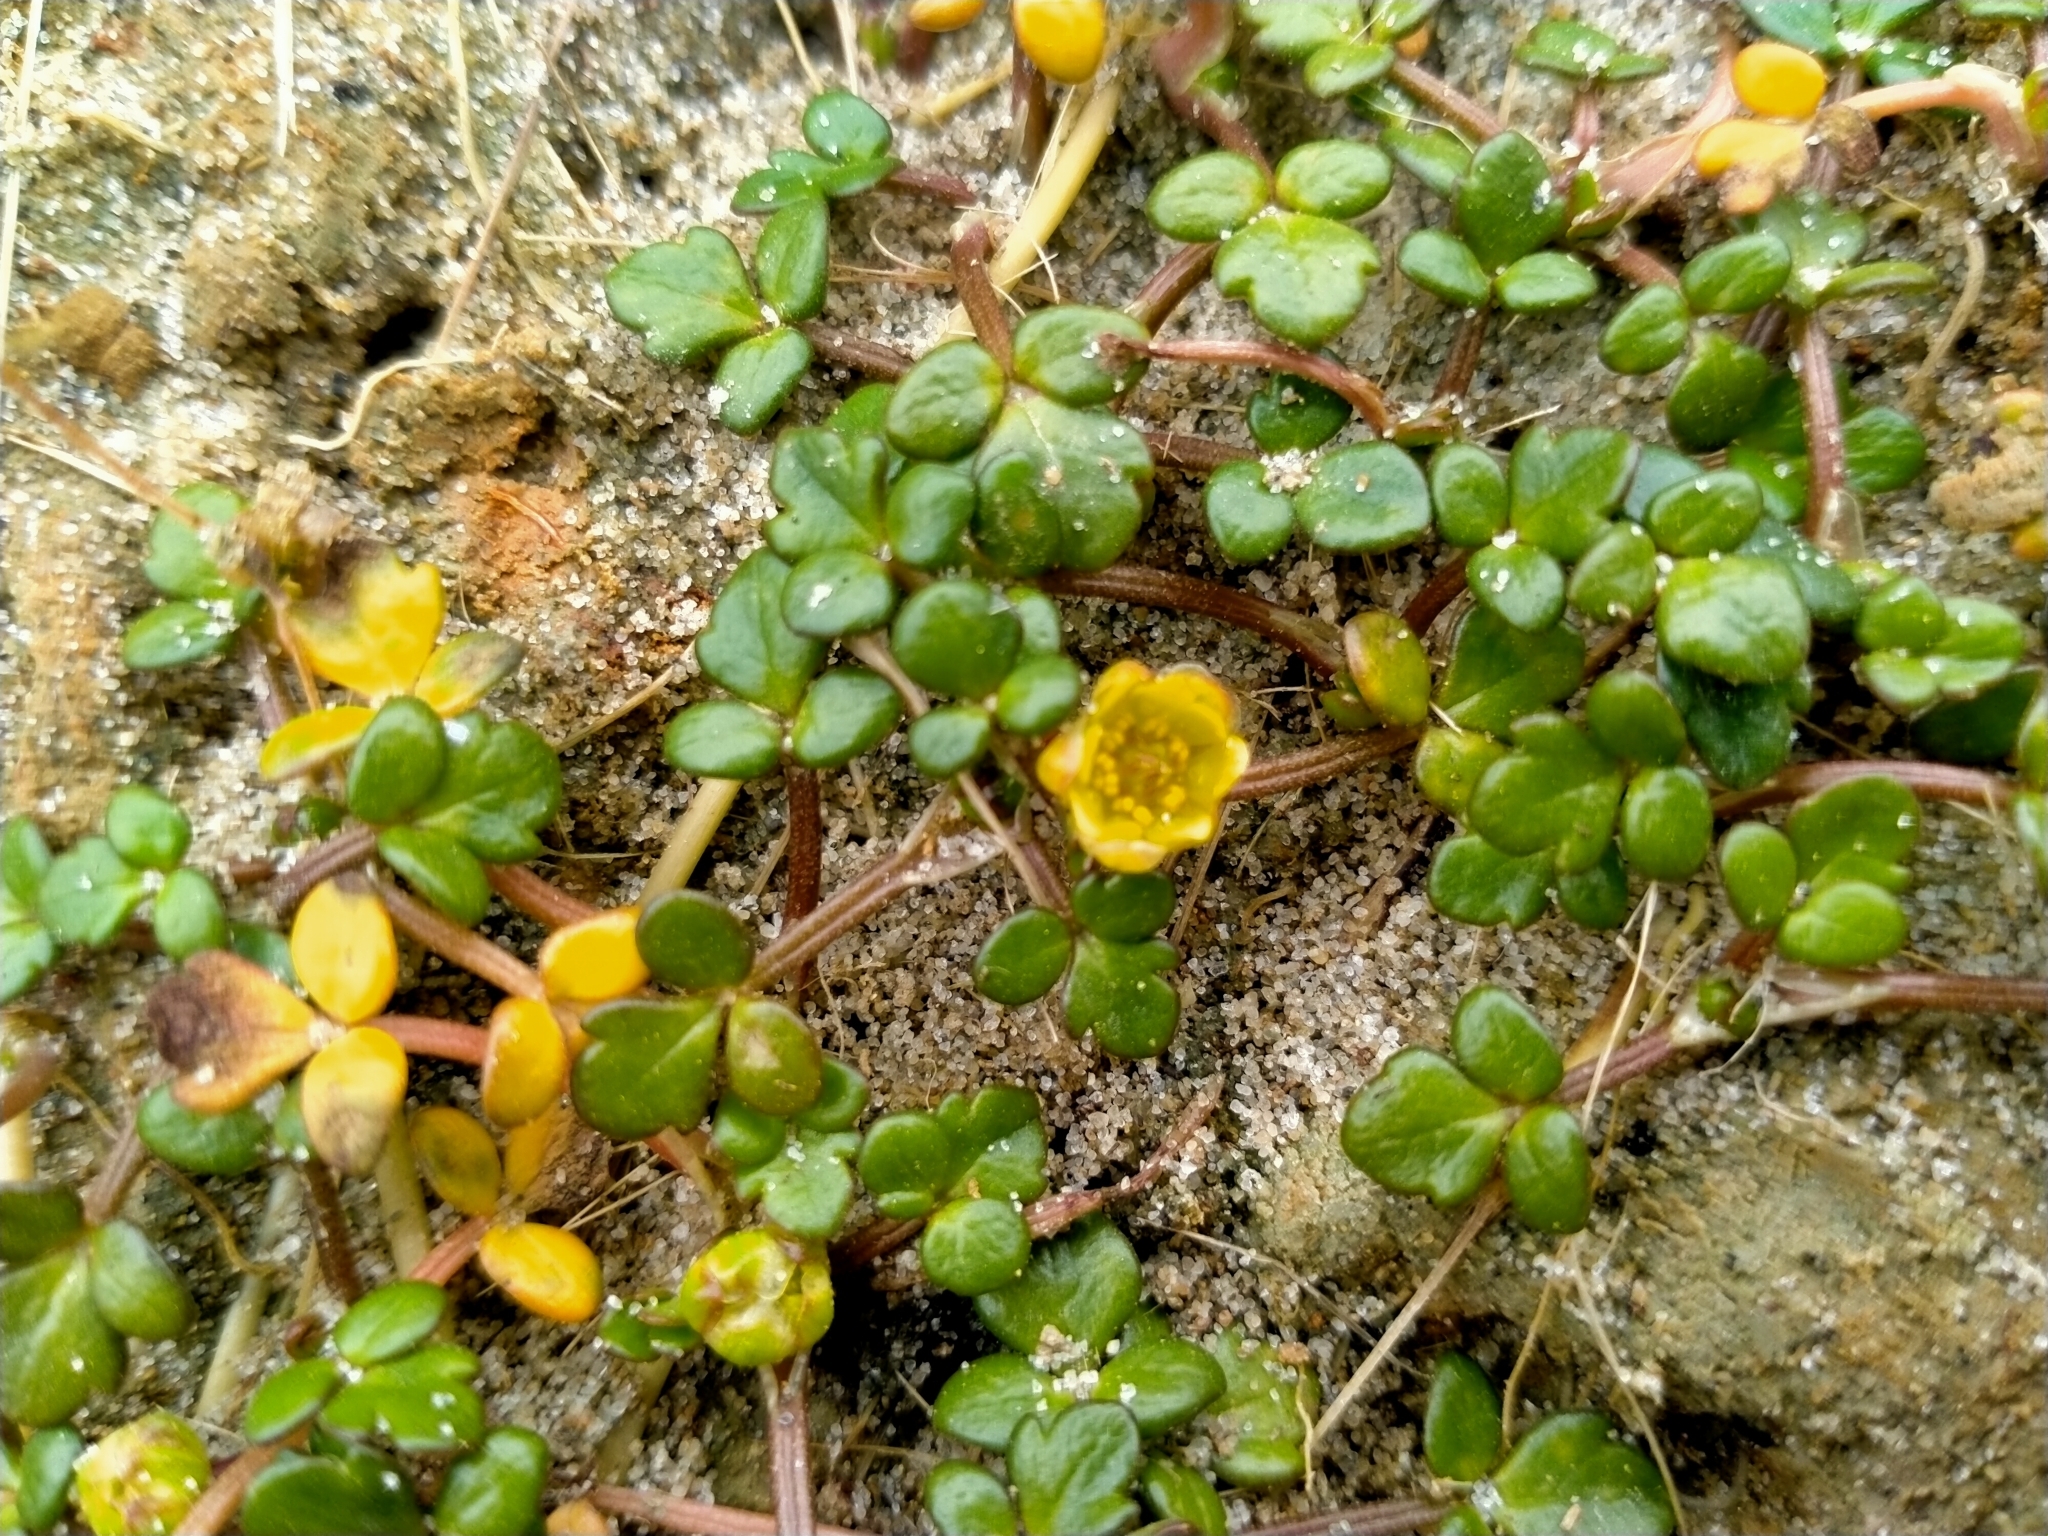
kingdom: Plantae
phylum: Tracheophyta
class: Magnoliopsida
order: Ranunculales
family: Ranunculaceae
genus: Ranunculus
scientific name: Ranunculus acaulis
